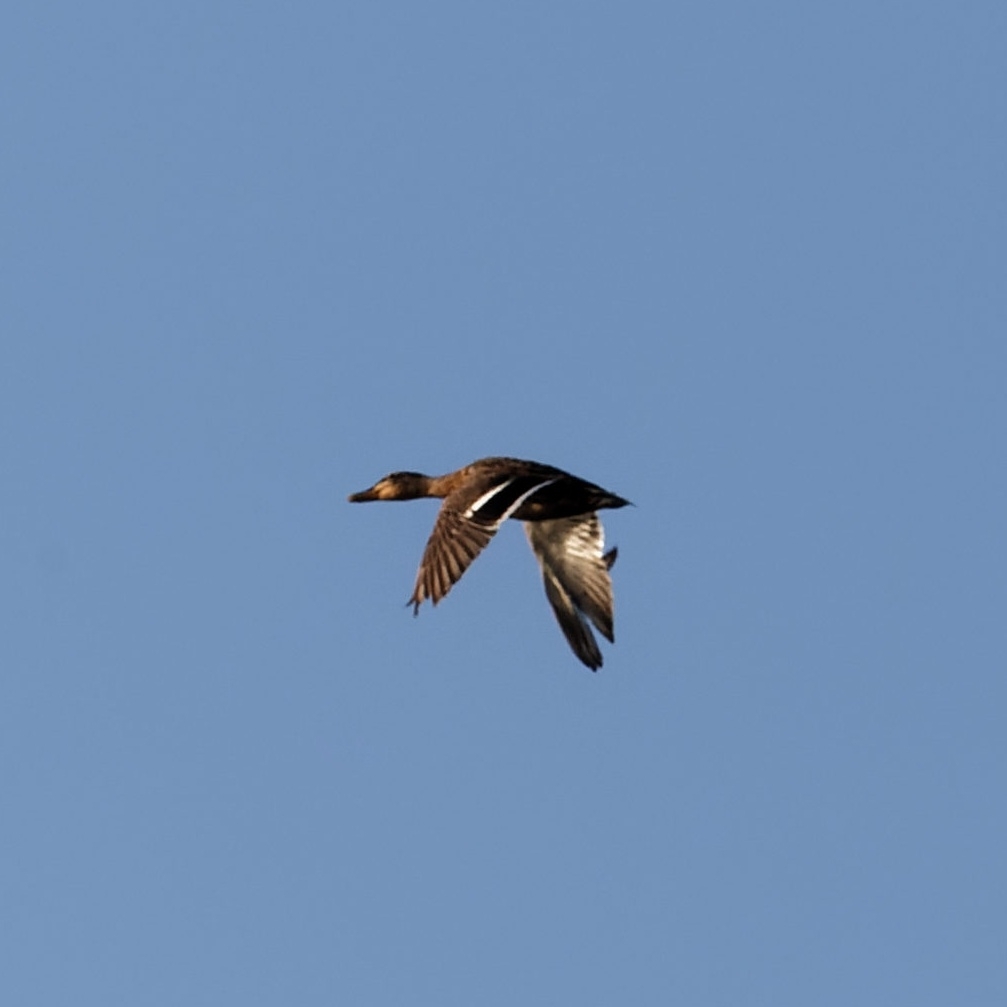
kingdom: Animalia
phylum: Chordata
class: Aves
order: Anseriformes
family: Anatidae
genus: Anas
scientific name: Anas platyrhynchos
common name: Mallard
